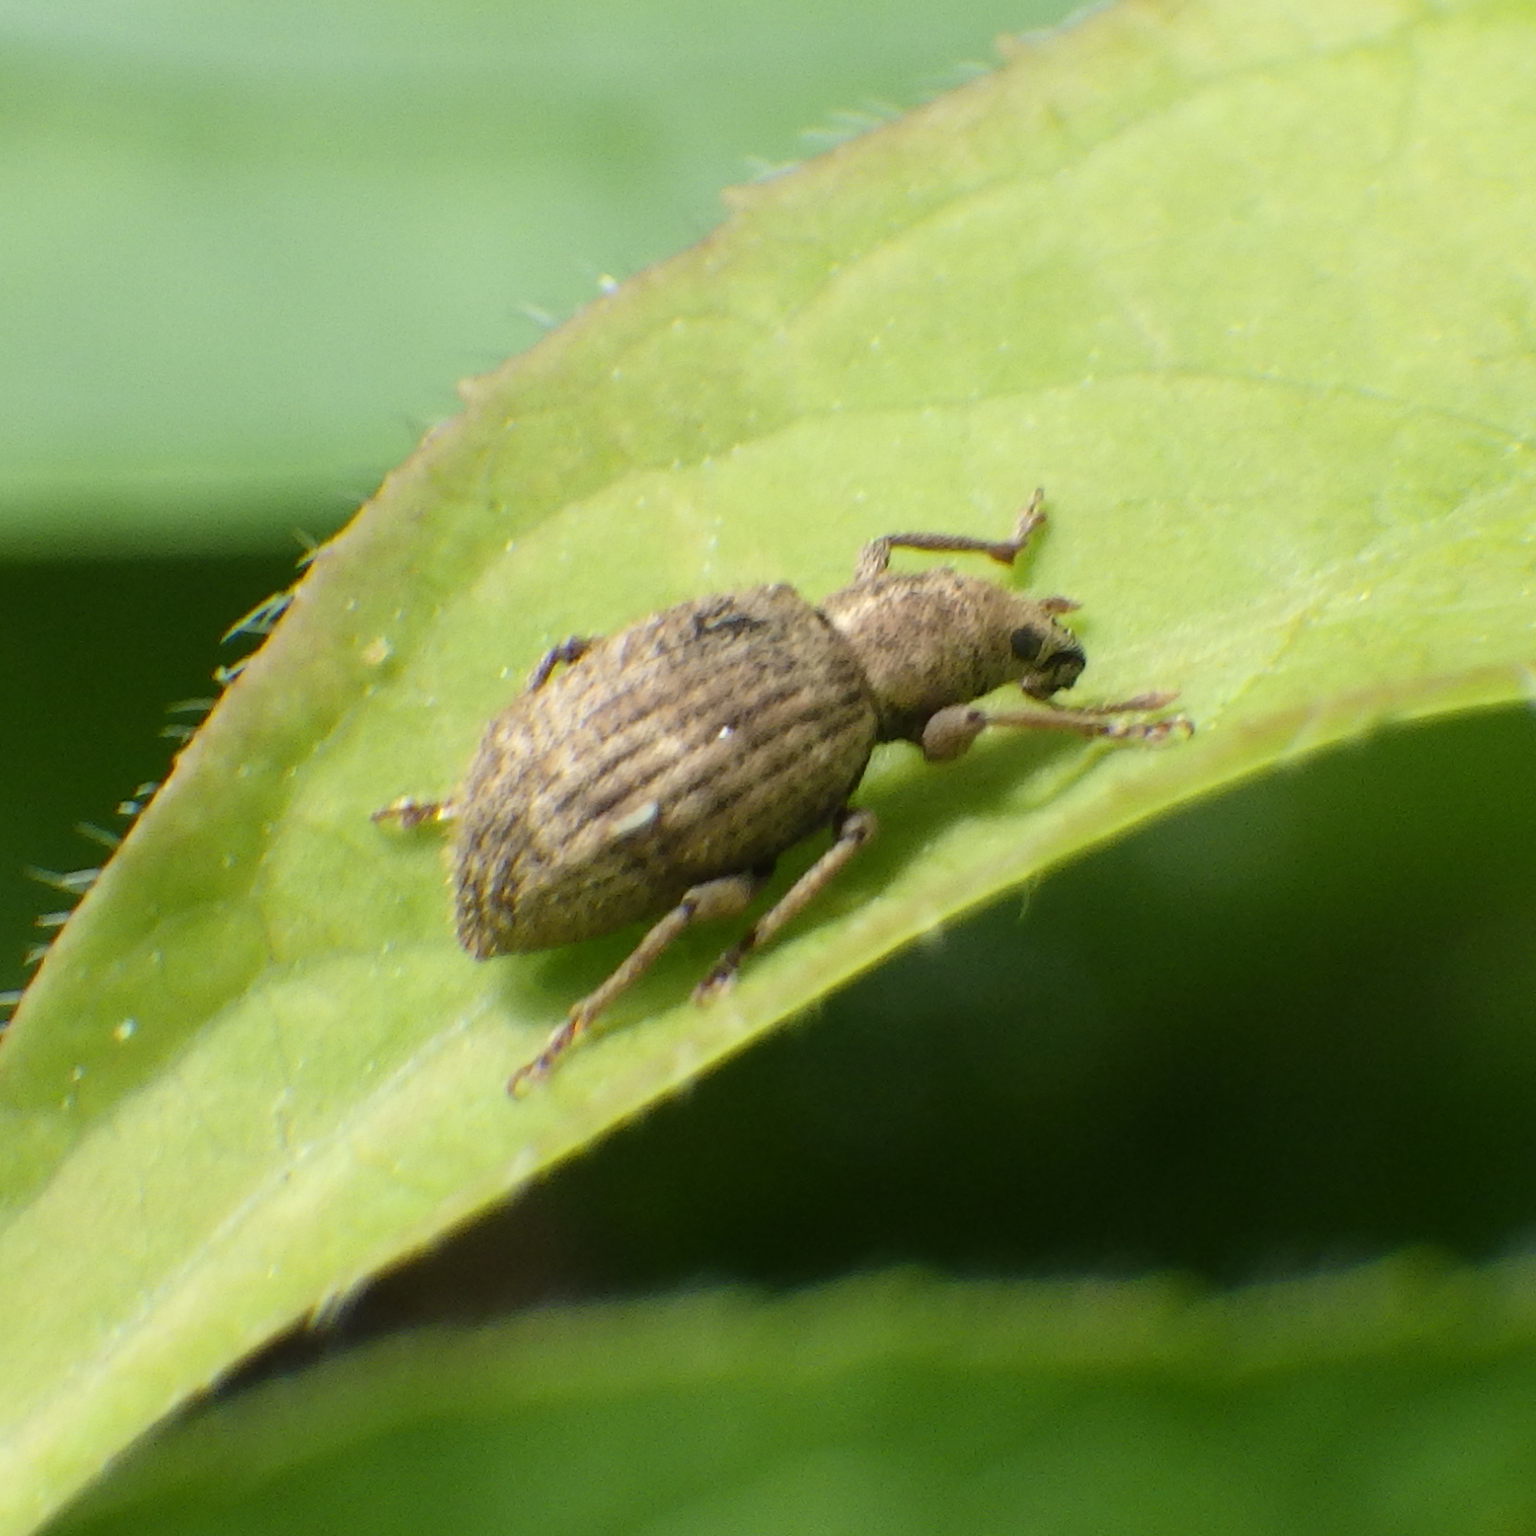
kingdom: Animalia
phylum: Arthropoda
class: Insecta
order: Coleoptera
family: Curculionidae
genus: Sciaphilus
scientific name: Sciaphilus asperatus
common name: Weevil
